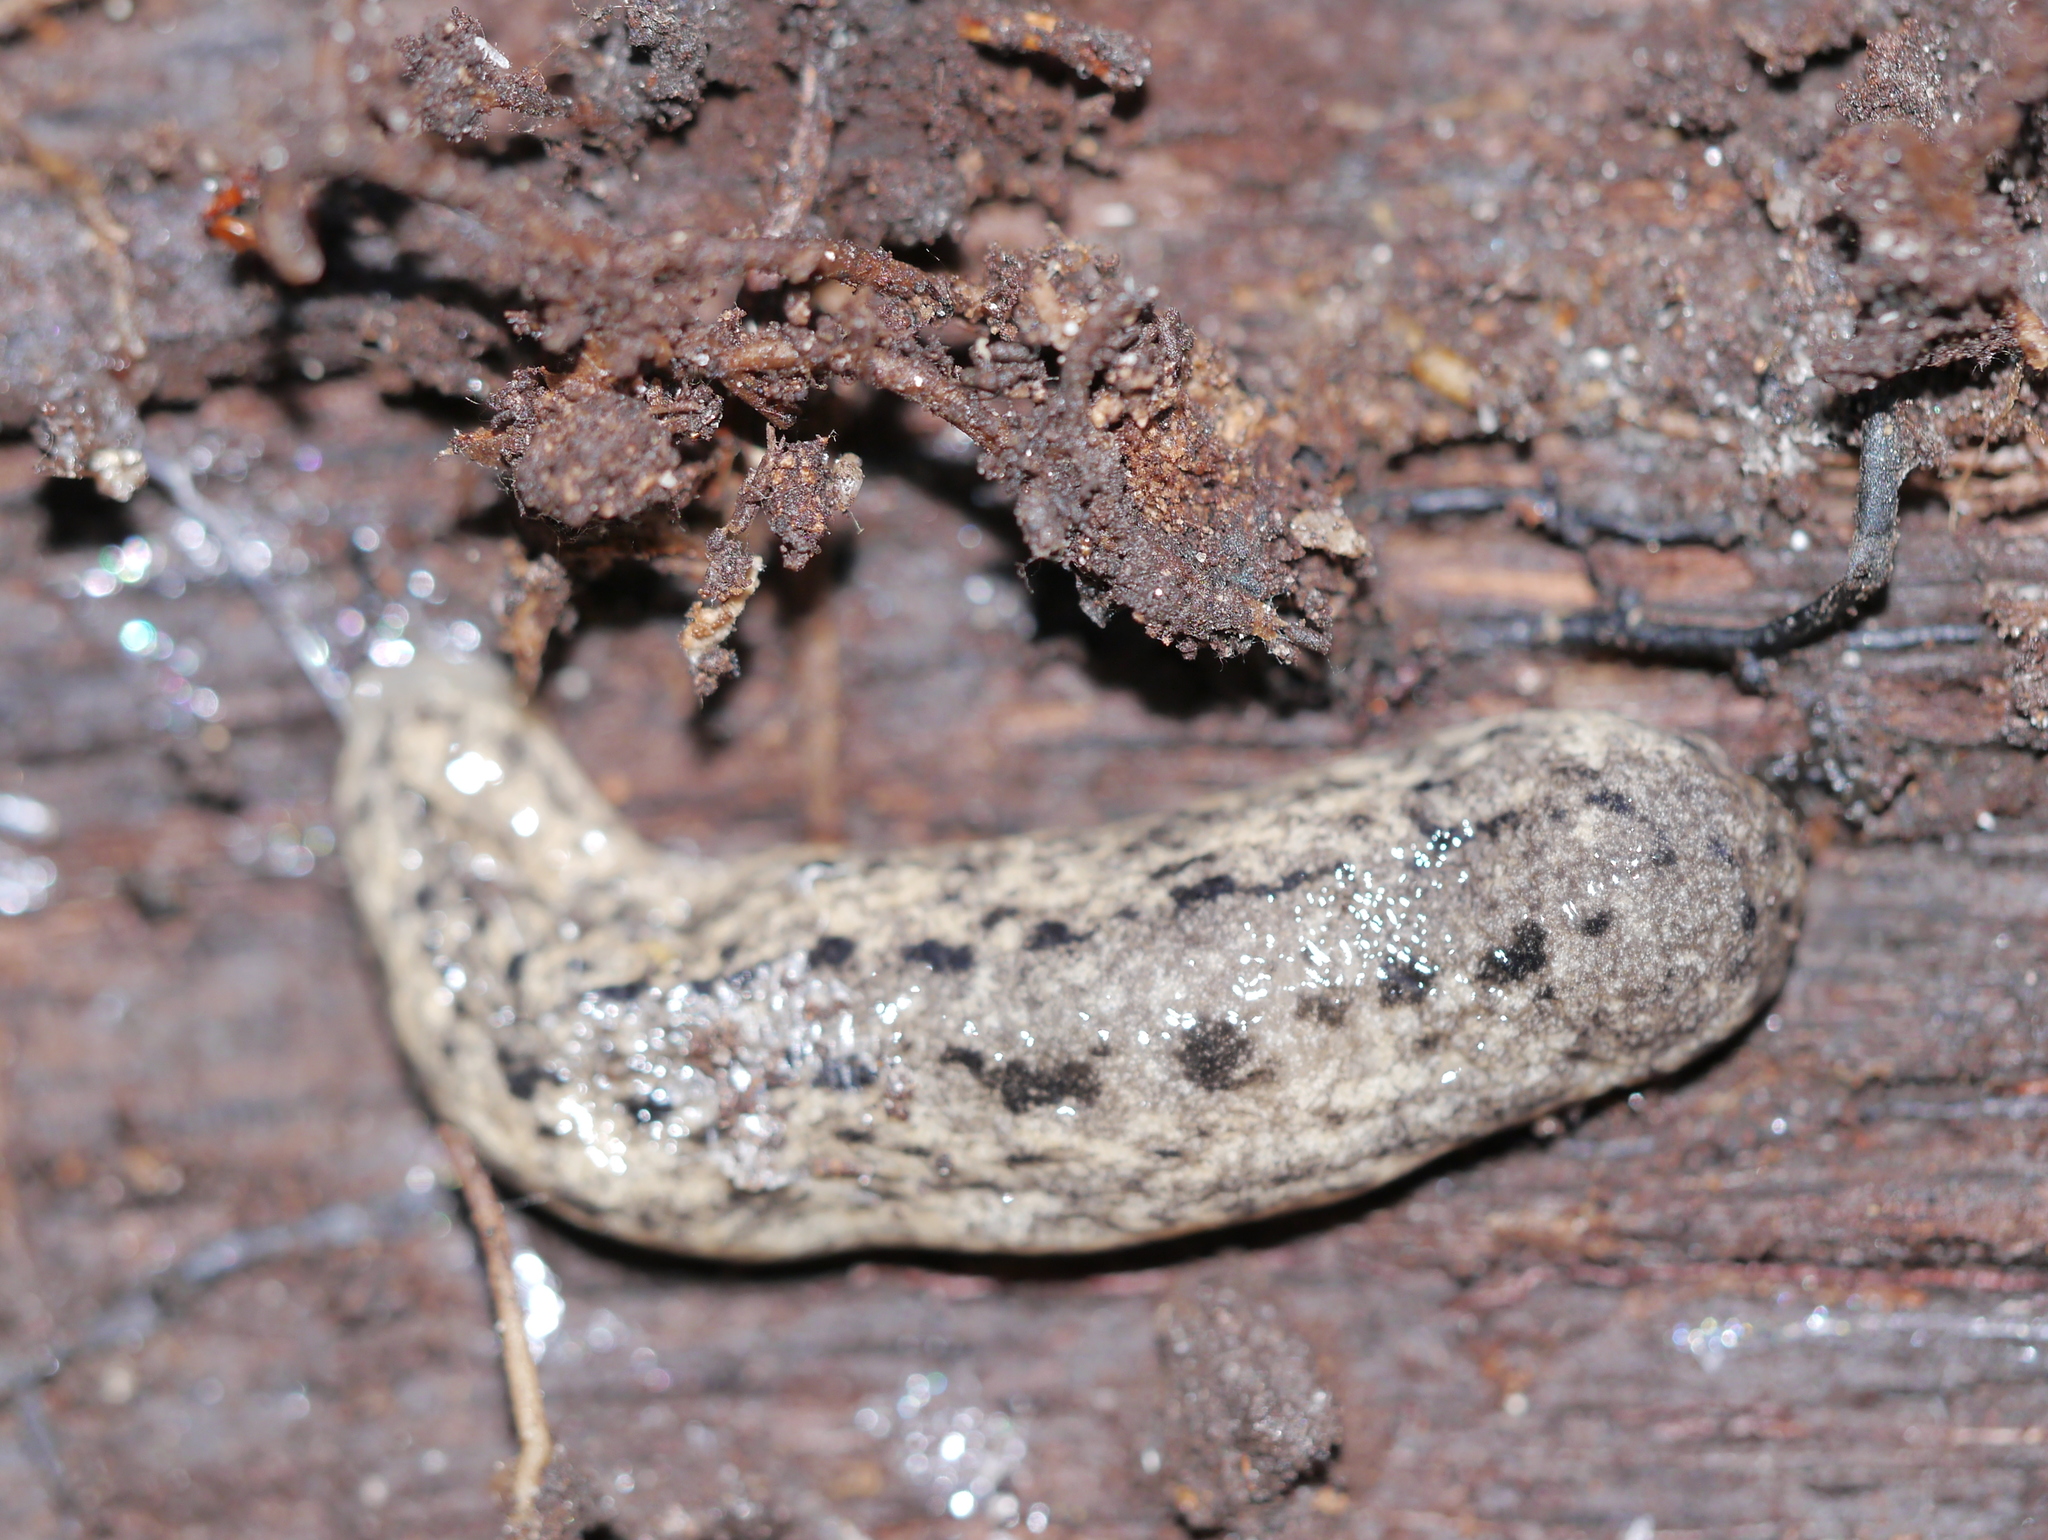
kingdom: Animalia
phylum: Mollusca
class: Gastropoda
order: Stylommatophora
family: Philomycidae
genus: Philomycus
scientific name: Philomycus carolinianus
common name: Carolina mantleslug
